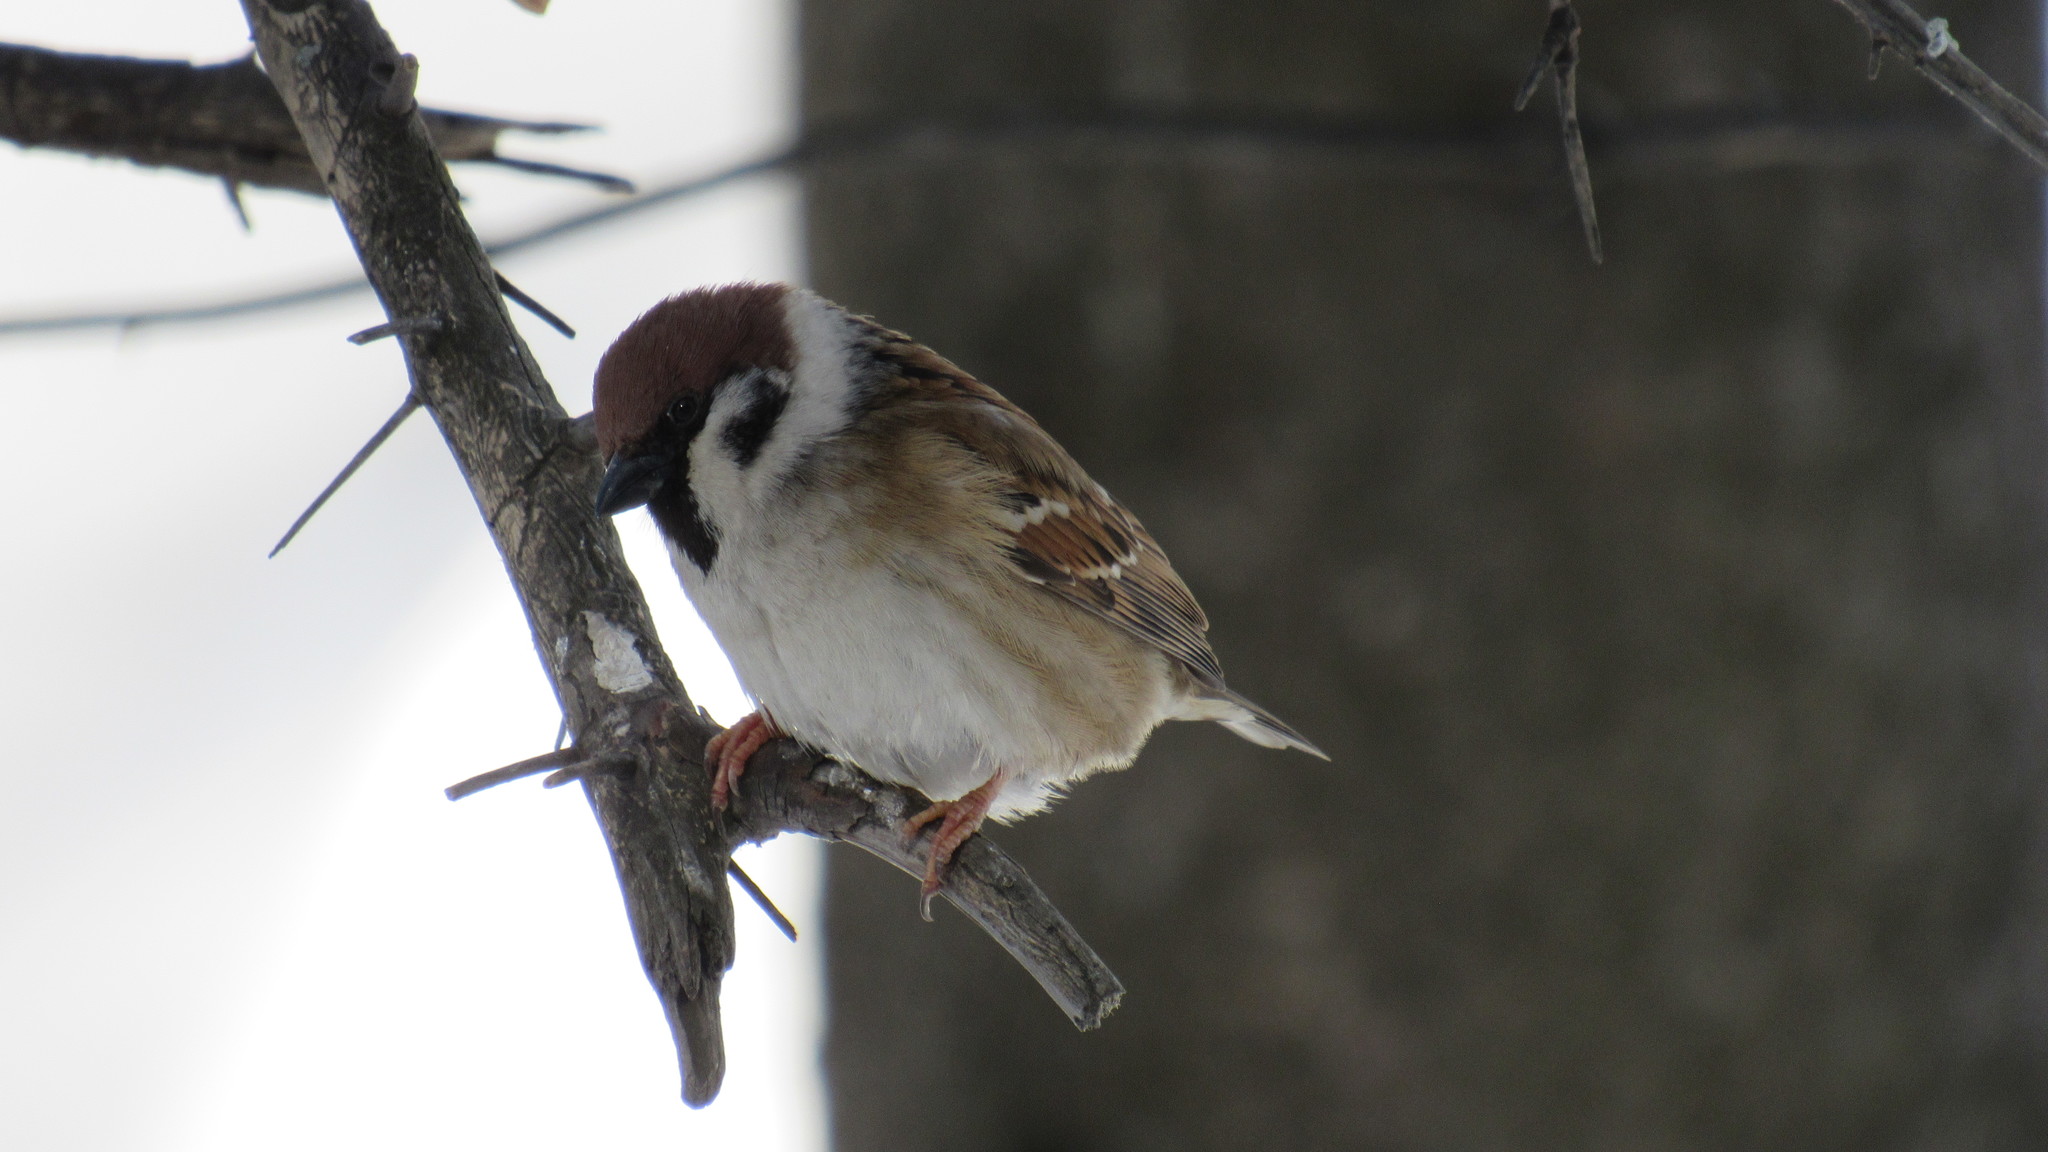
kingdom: Animalia
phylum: Chordata
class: Aves
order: Passeriformes
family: Passeridae
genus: Passer
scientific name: Passer montanus
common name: Eurasian tree sparrow
